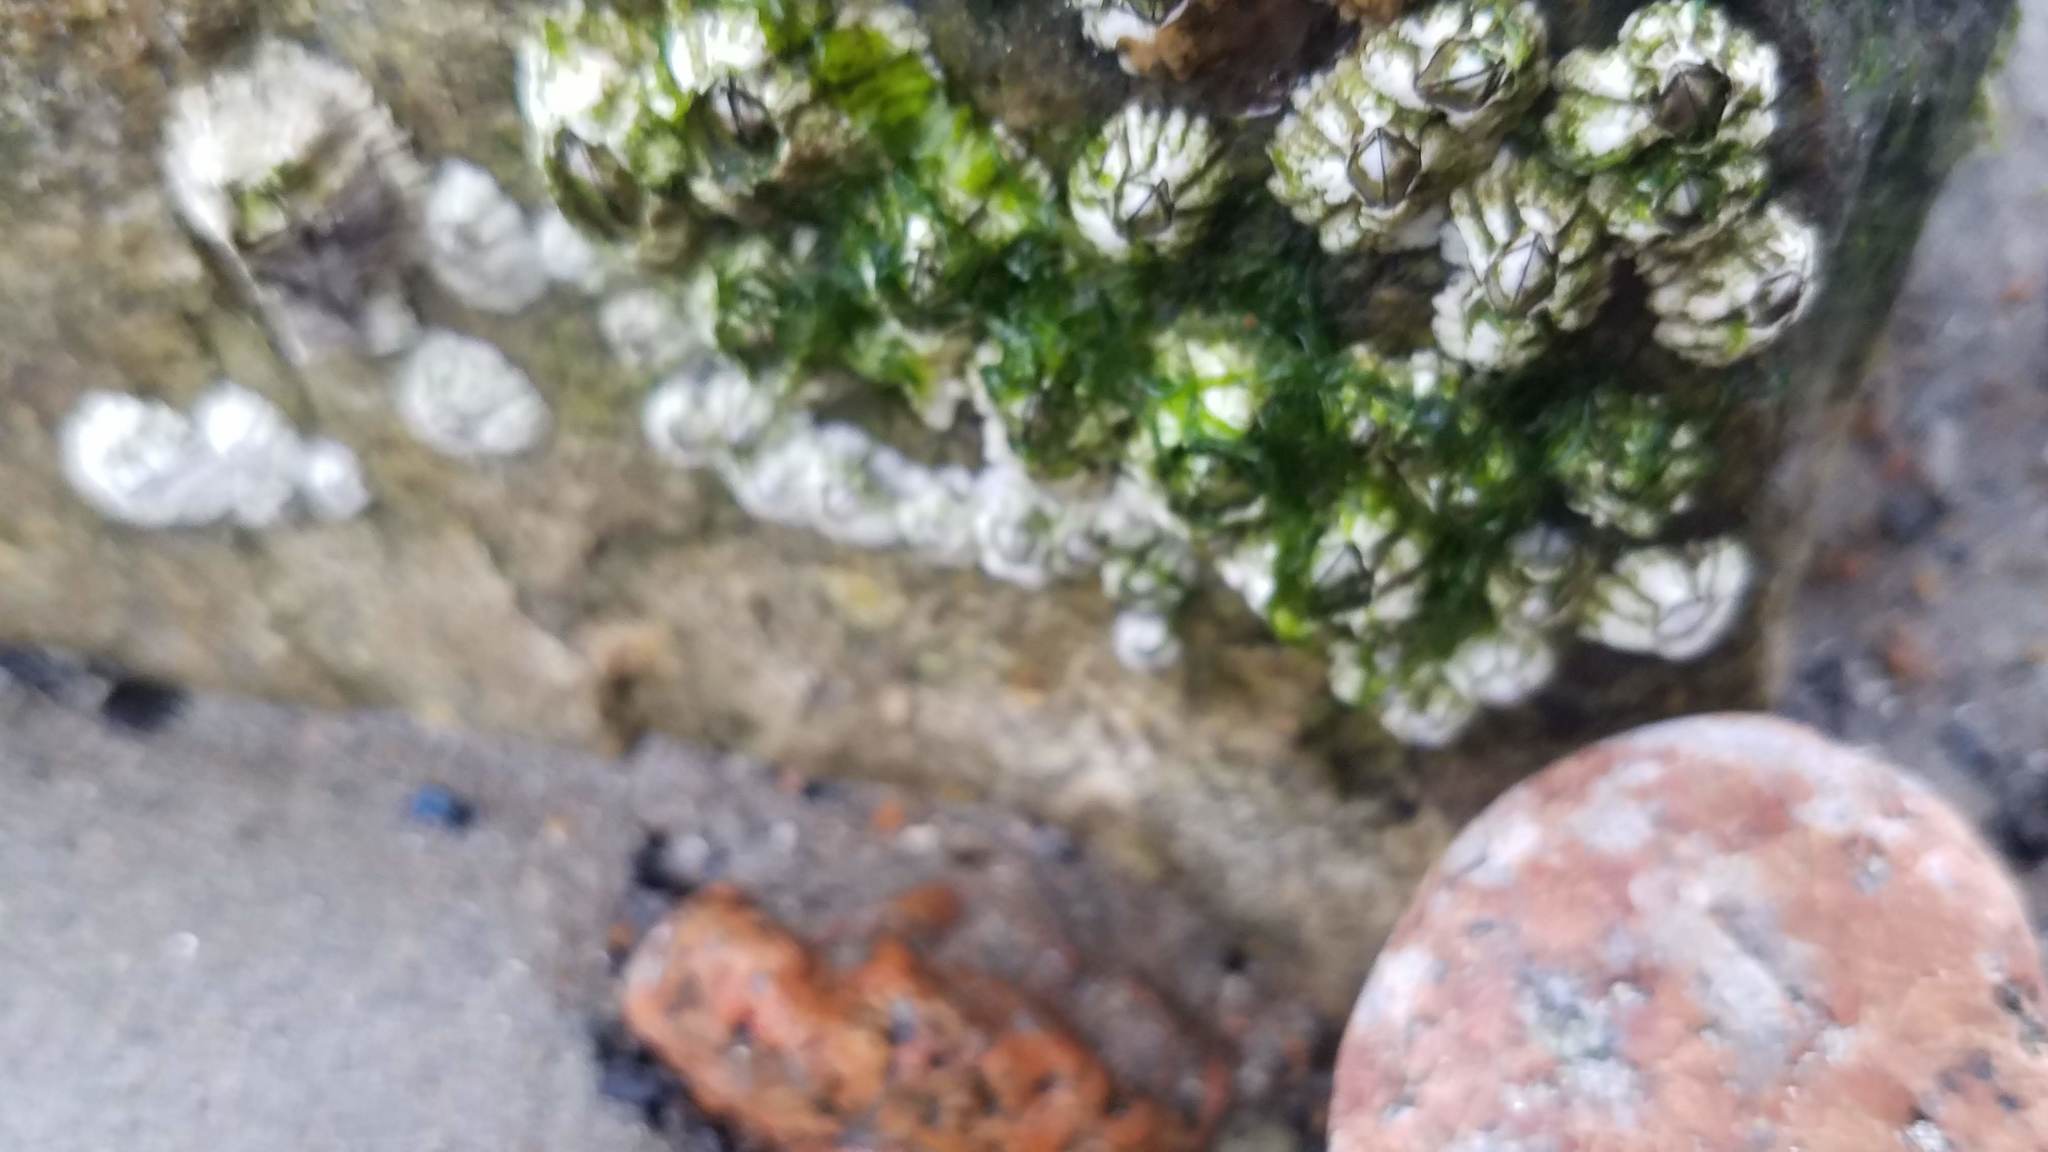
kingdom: Animalia
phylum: Arthropoda
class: Maxillopoda
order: Sessilia
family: Archaeobalanidae
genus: Semibalanus
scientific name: Semibalanus balanoides
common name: Acorn barnacle
